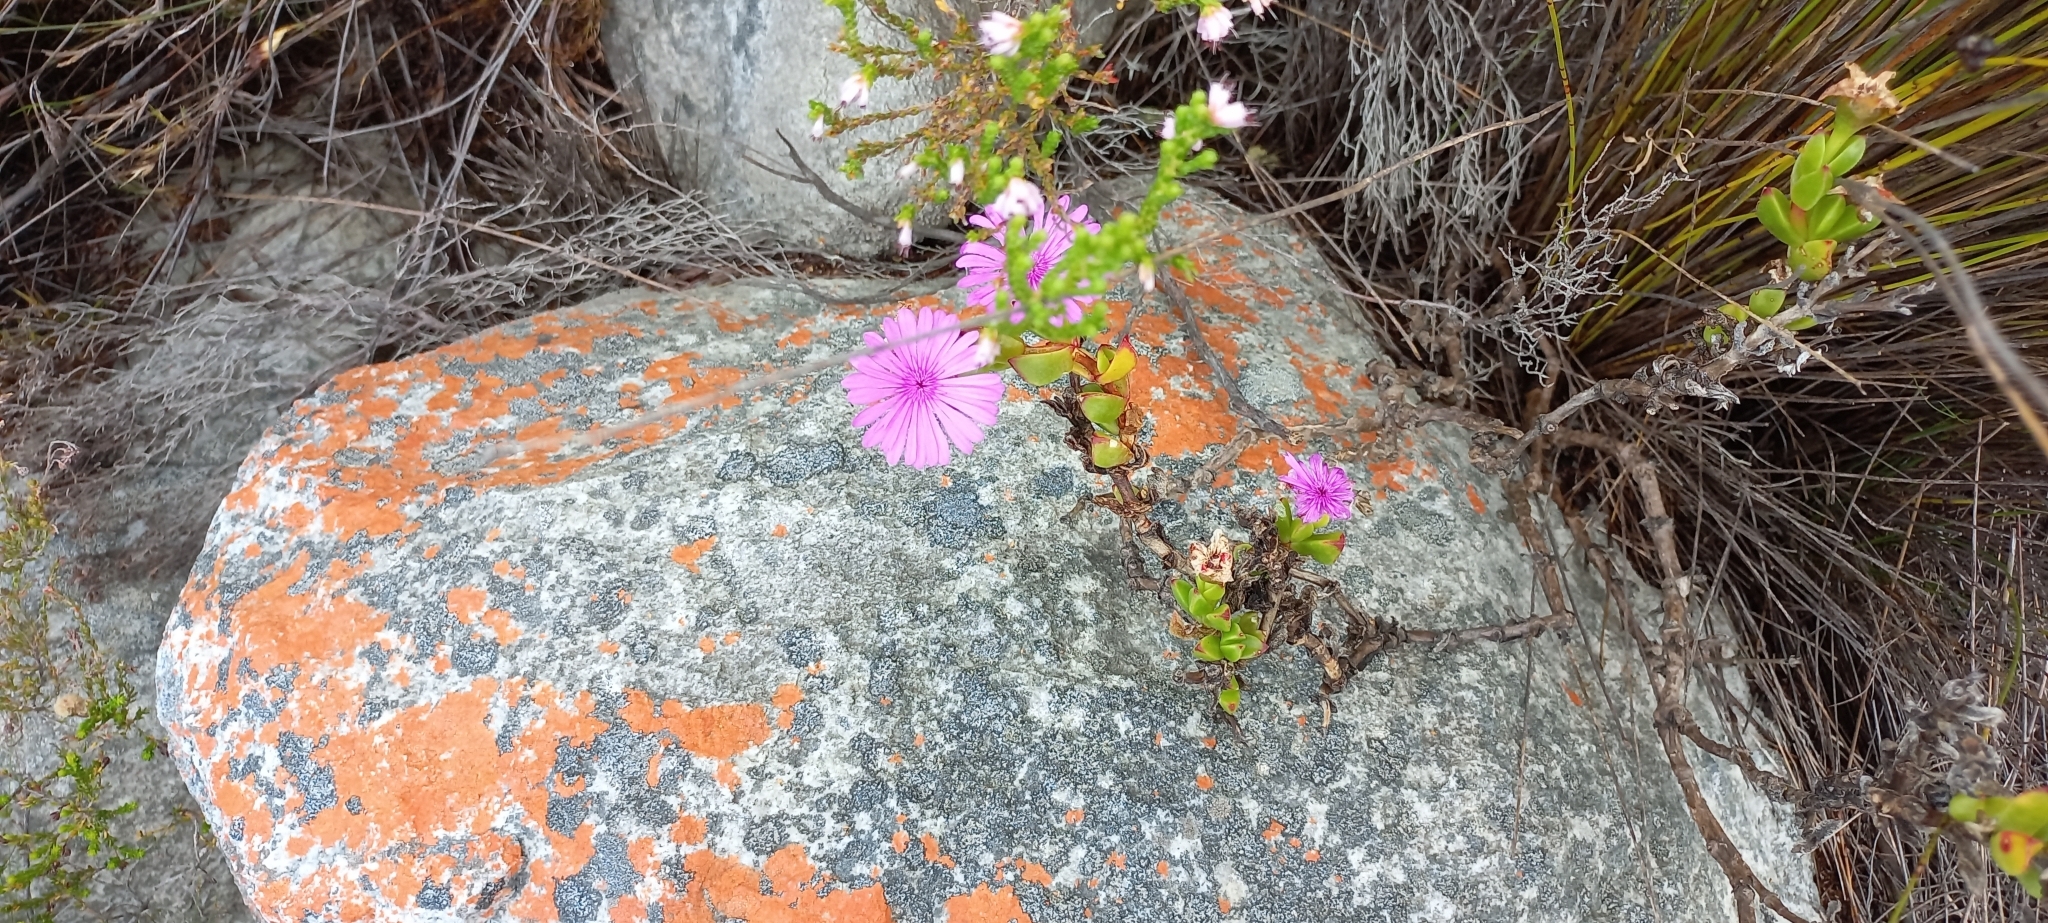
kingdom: Plantae
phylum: Tracheophyta
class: Magnoliopsida
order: Caryophyllales
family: Aizoaceae
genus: Erepsia
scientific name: Erepsia inclaudens
